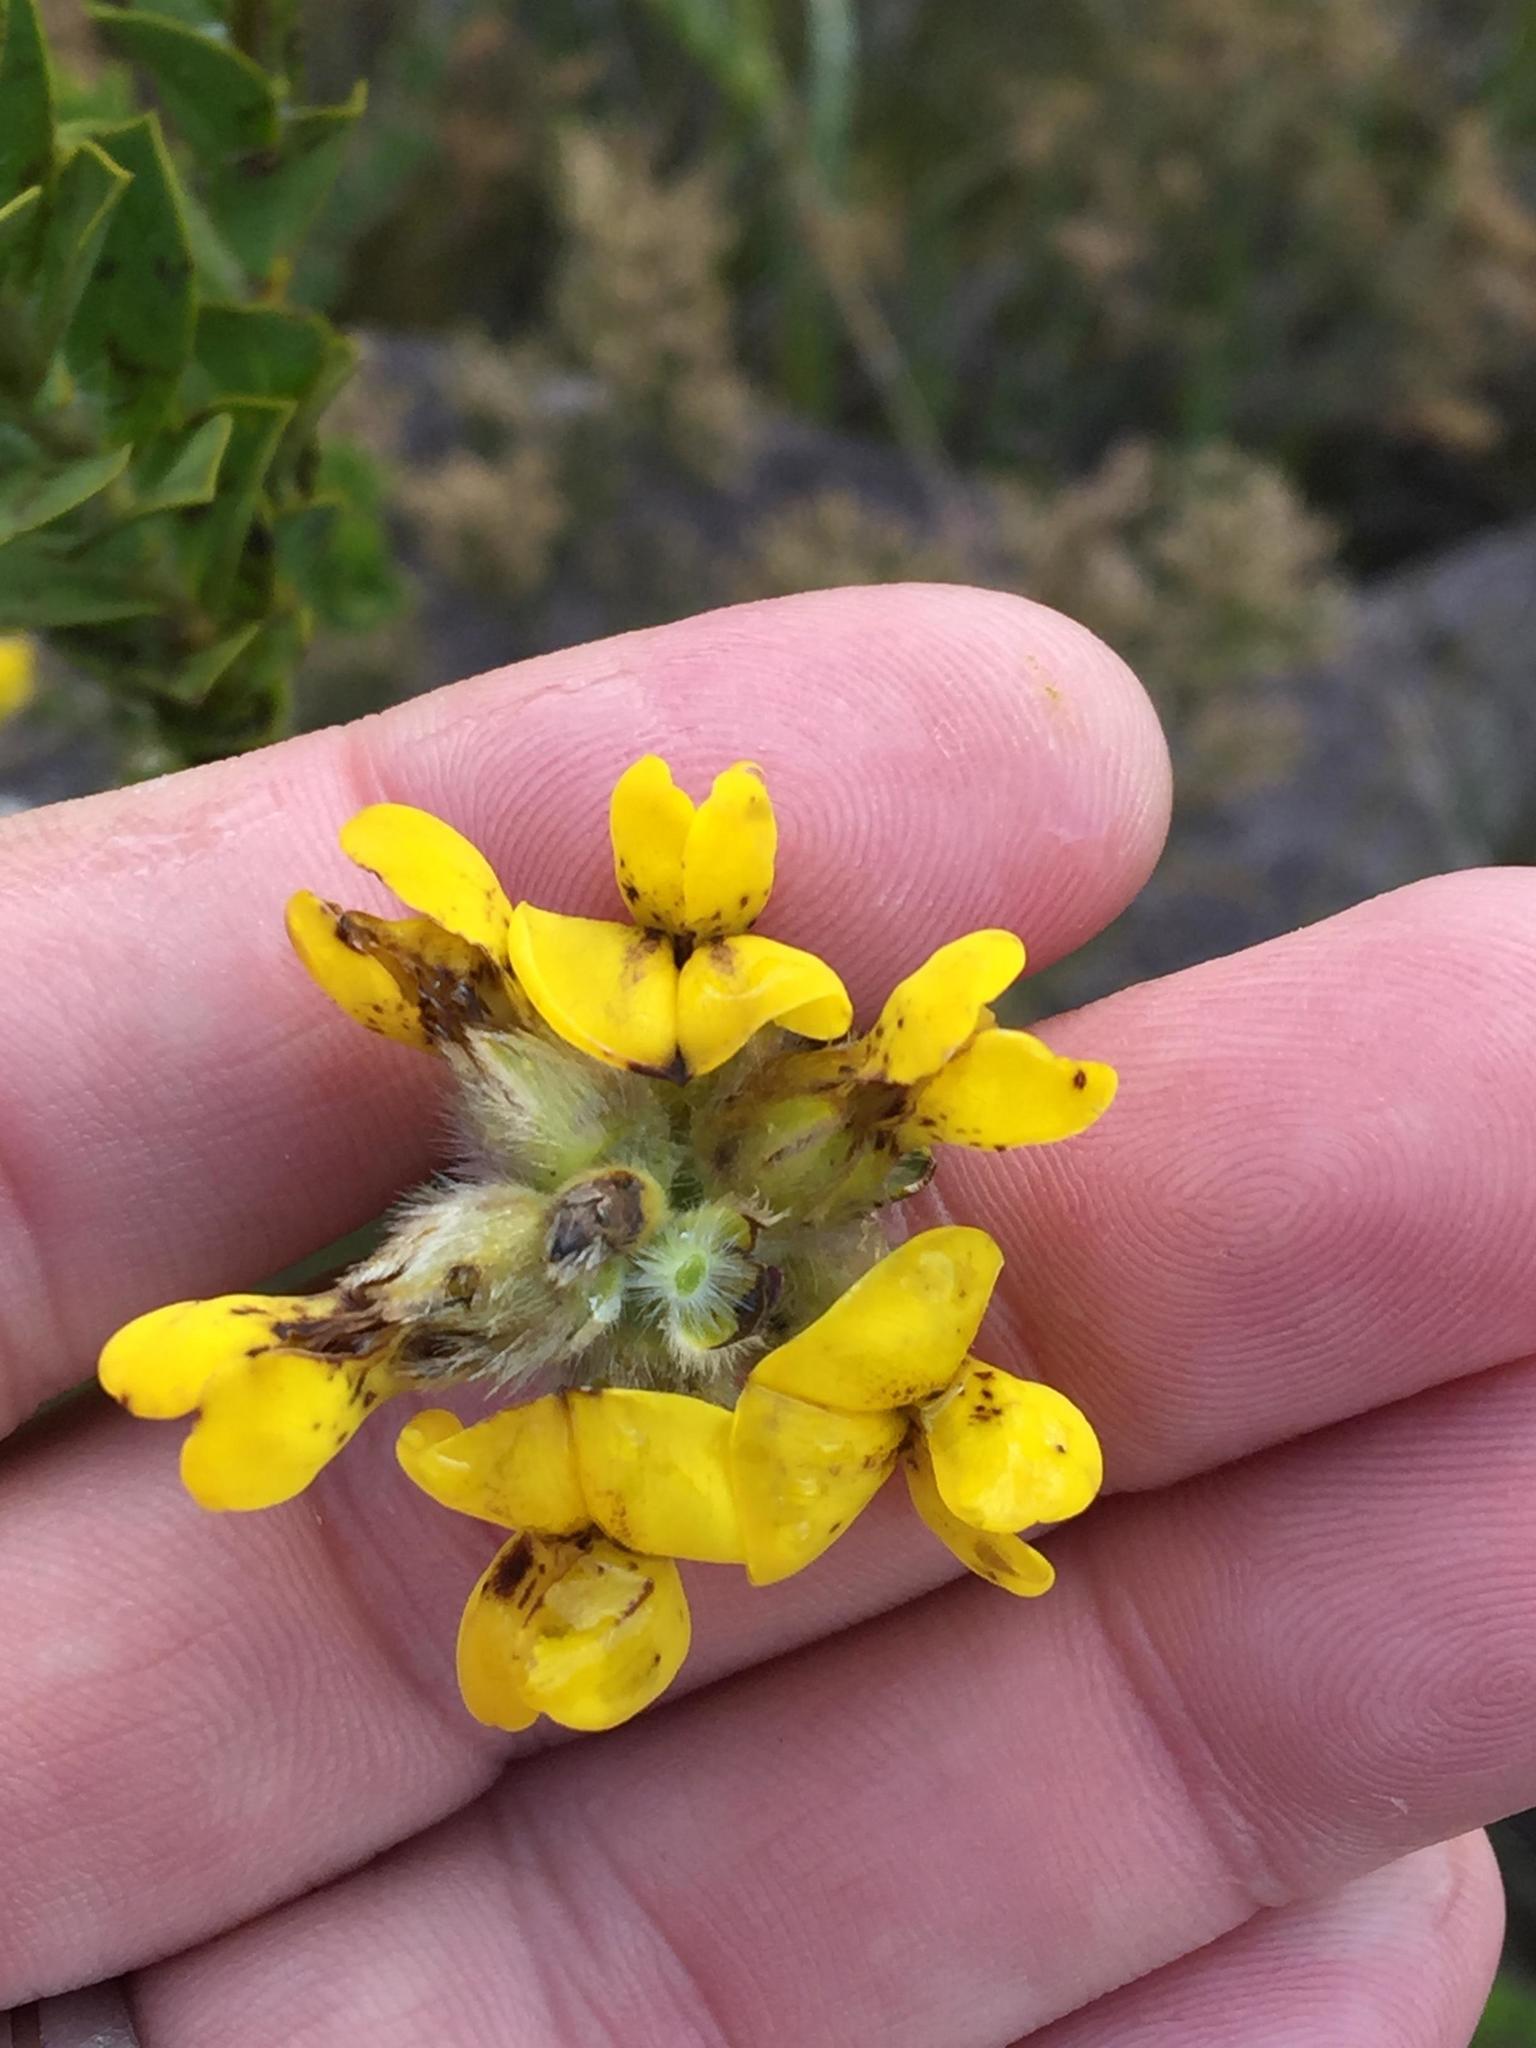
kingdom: Plantae
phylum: Tracheophyta
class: Magnoliopsida
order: Fabales
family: Fabaceae
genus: Liparia
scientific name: Liparia hirsuta
